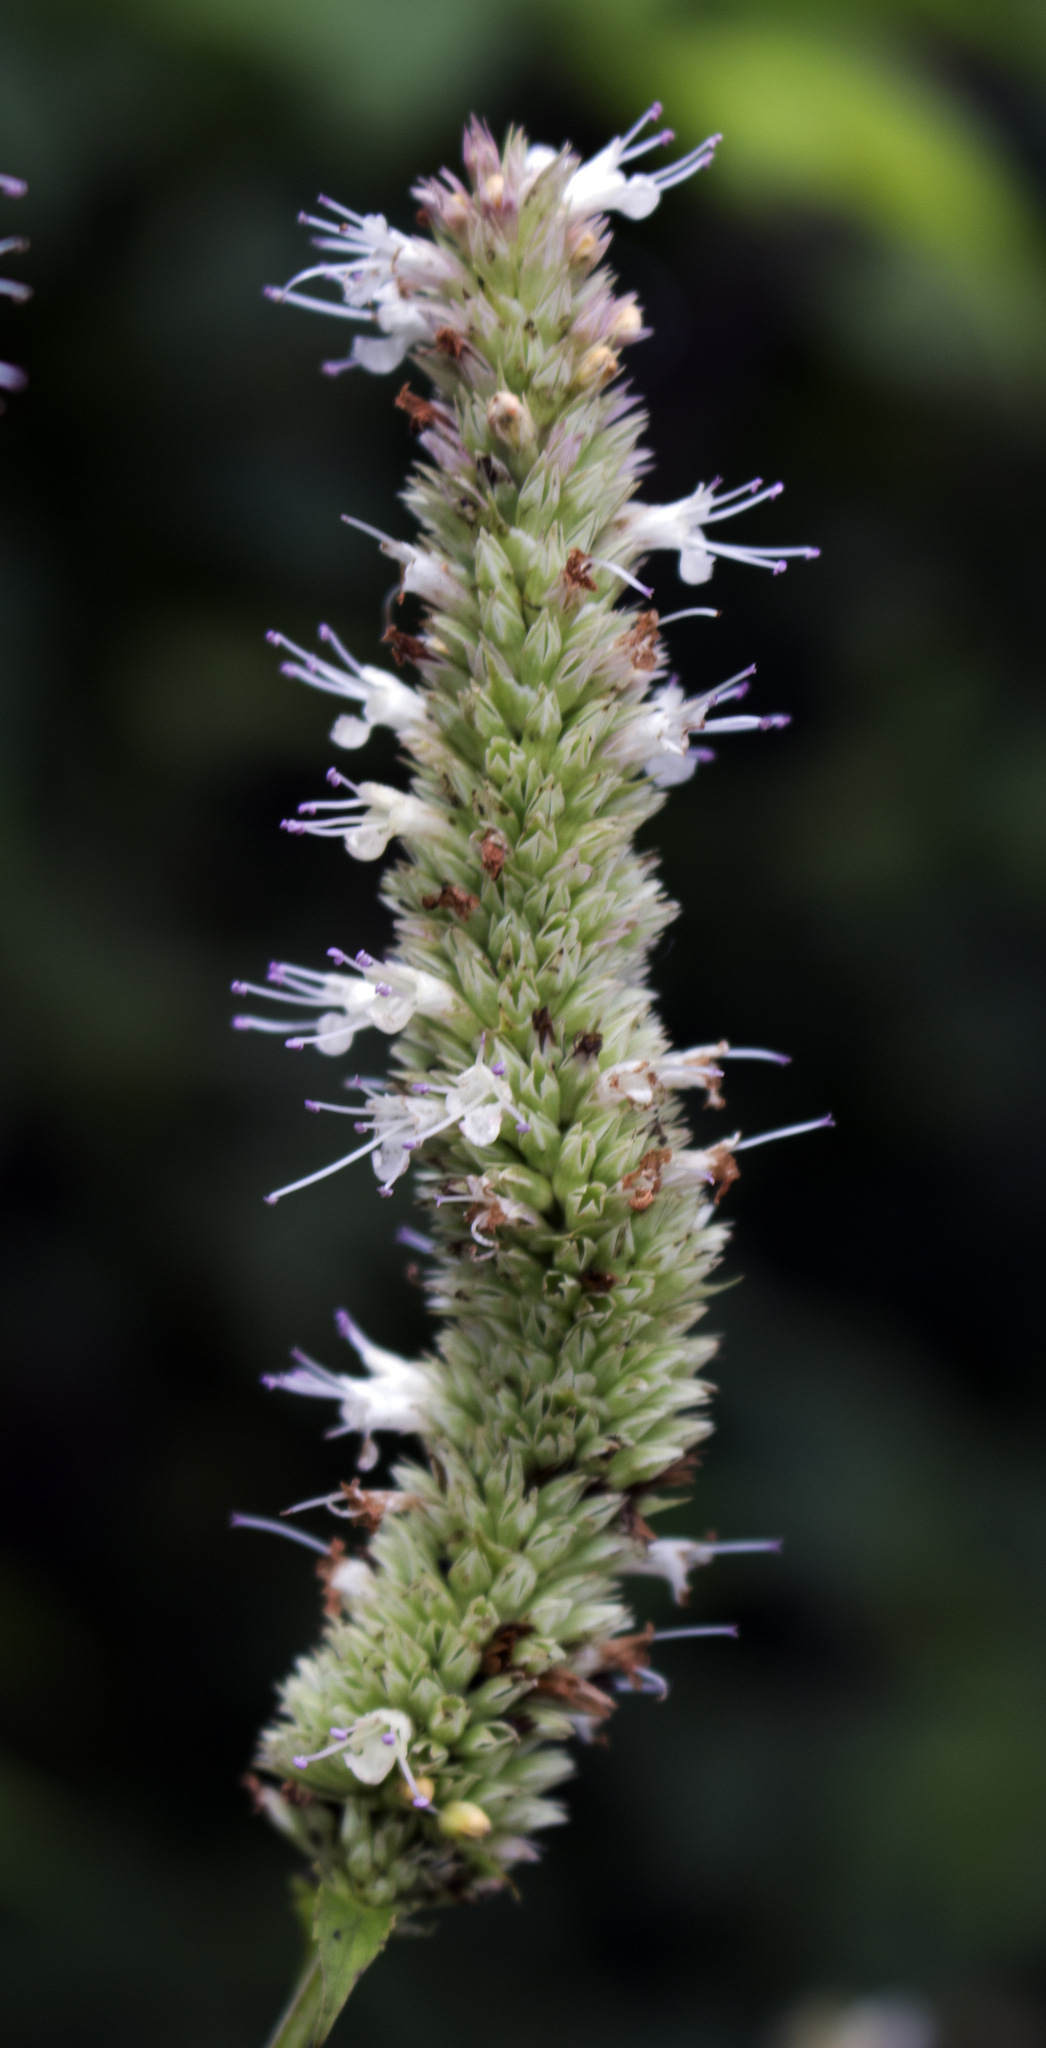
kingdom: Plantae
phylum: Tracheophyta
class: Magnoliopsida
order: Lamiales
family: Lamiaceae
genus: Agastache
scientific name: Agastache scrophulariifolia
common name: Figwort giant hyssop
